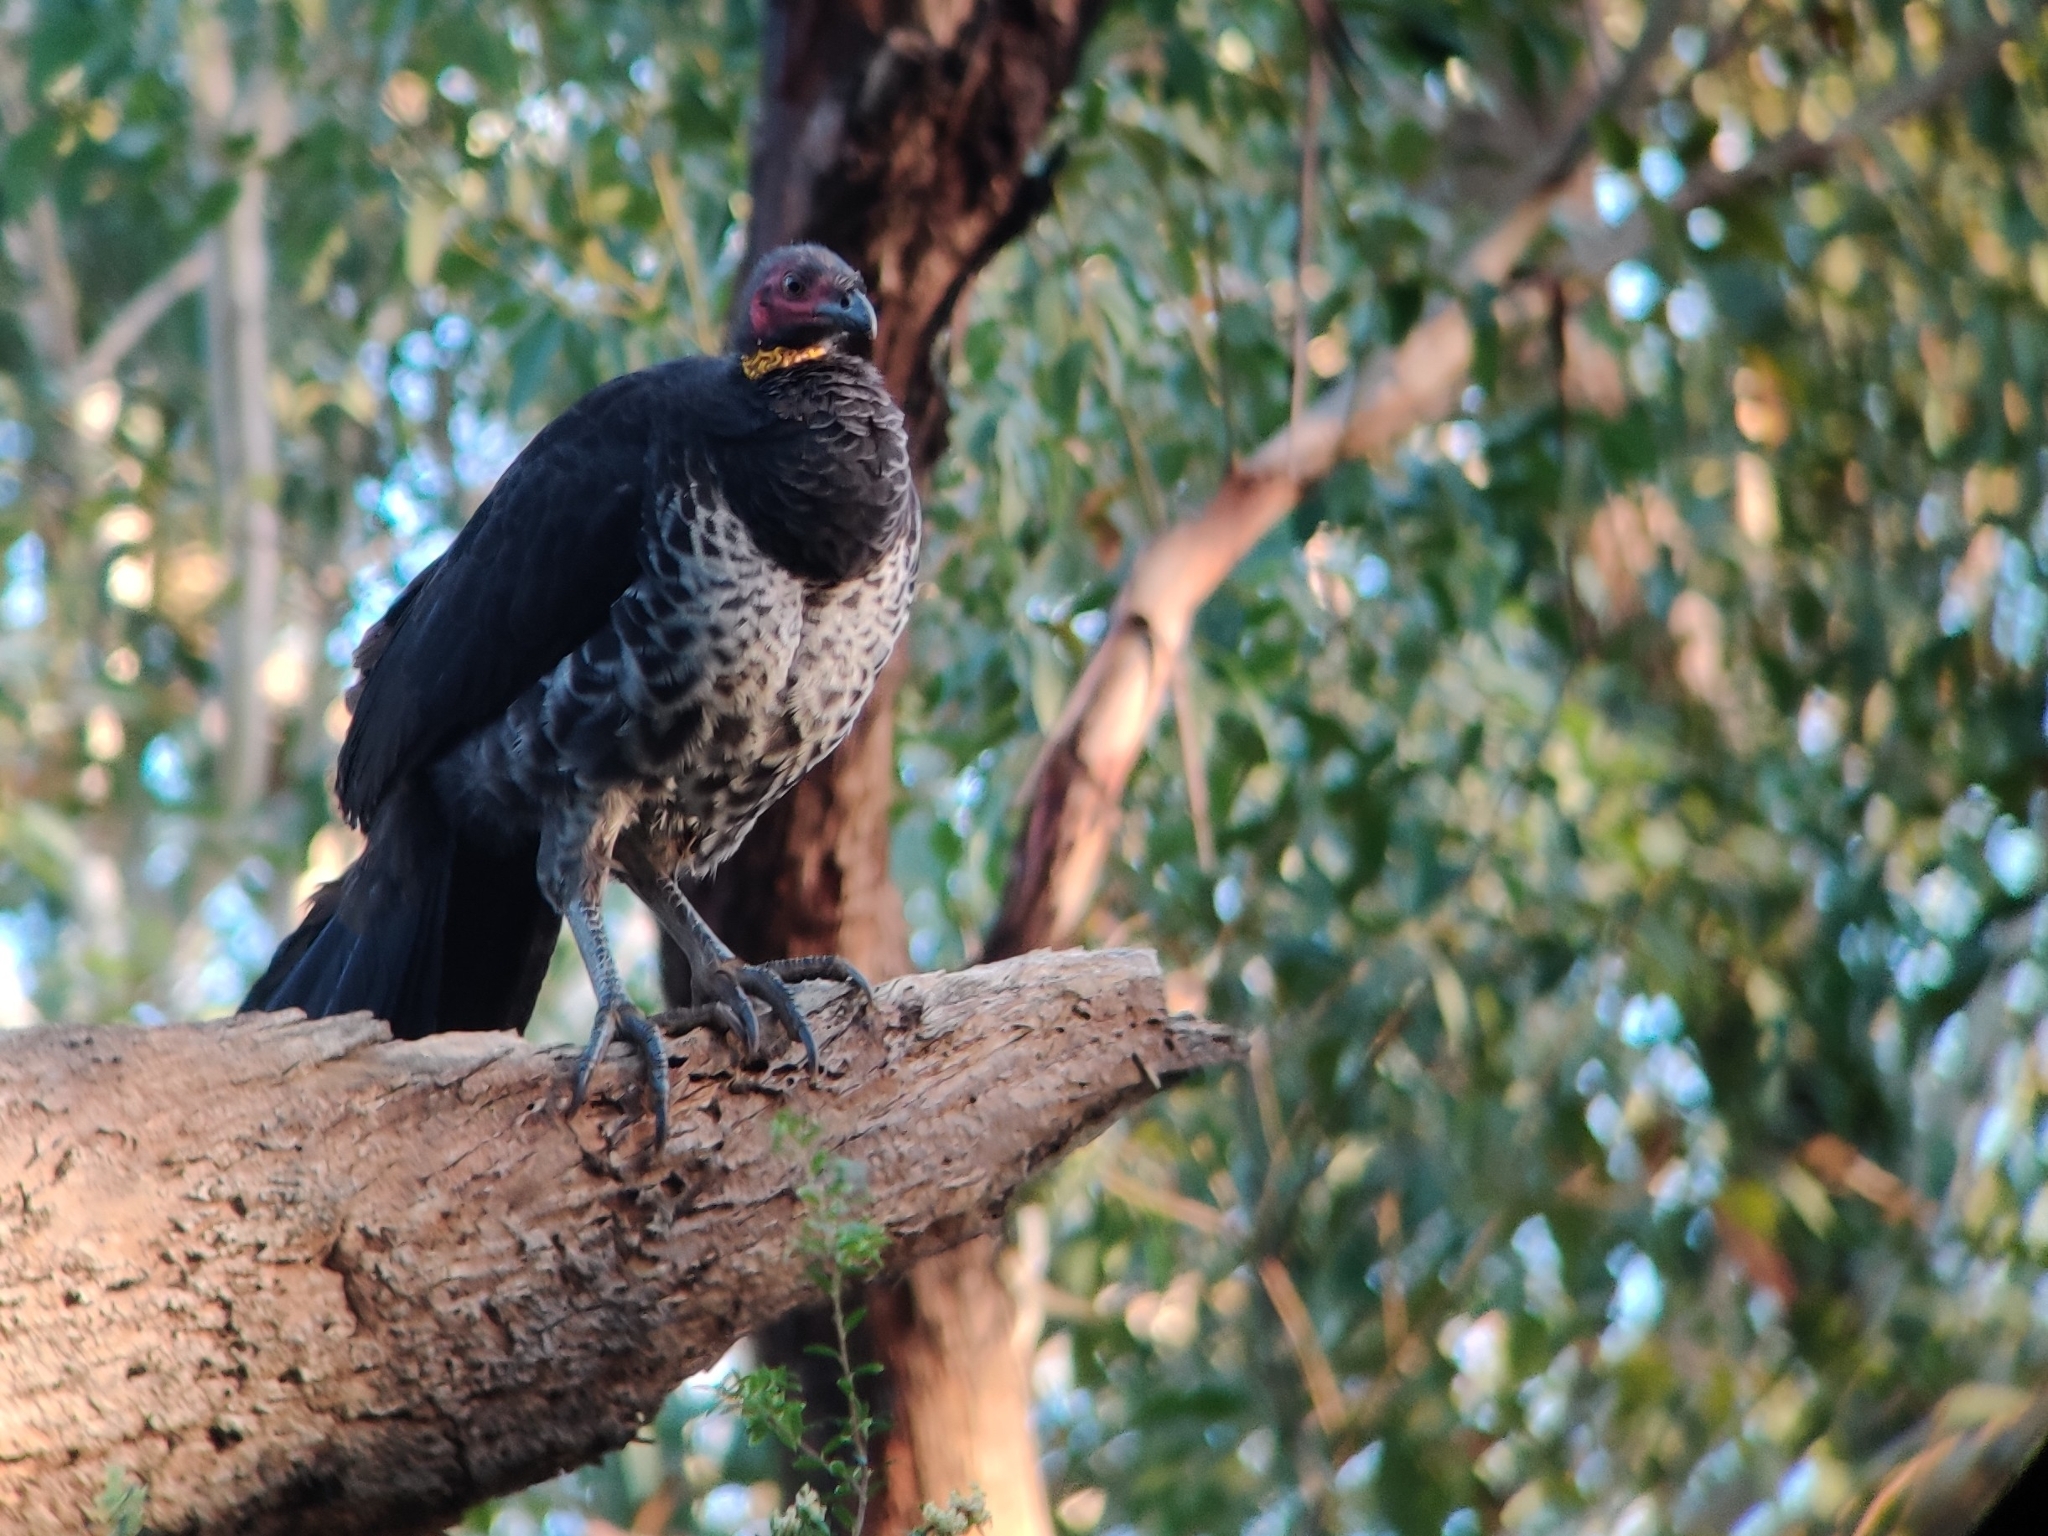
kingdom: Animalia
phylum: Chordata
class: Aves
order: Galliformes
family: Megapodiidae
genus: Alectura
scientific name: Alectura lathami
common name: Australian brushturkey
